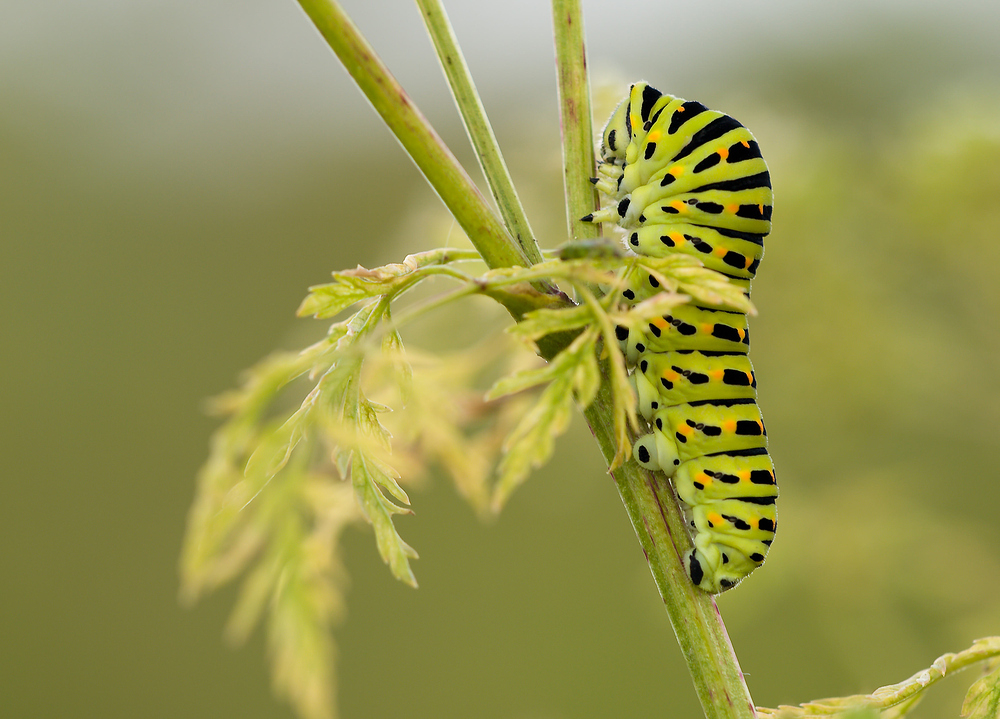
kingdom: Animalia
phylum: Arthropoda
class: Insecta
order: Lepidoptera
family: Papilionidae
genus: Papilio
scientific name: Papilio machaon
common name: Swallowtail
